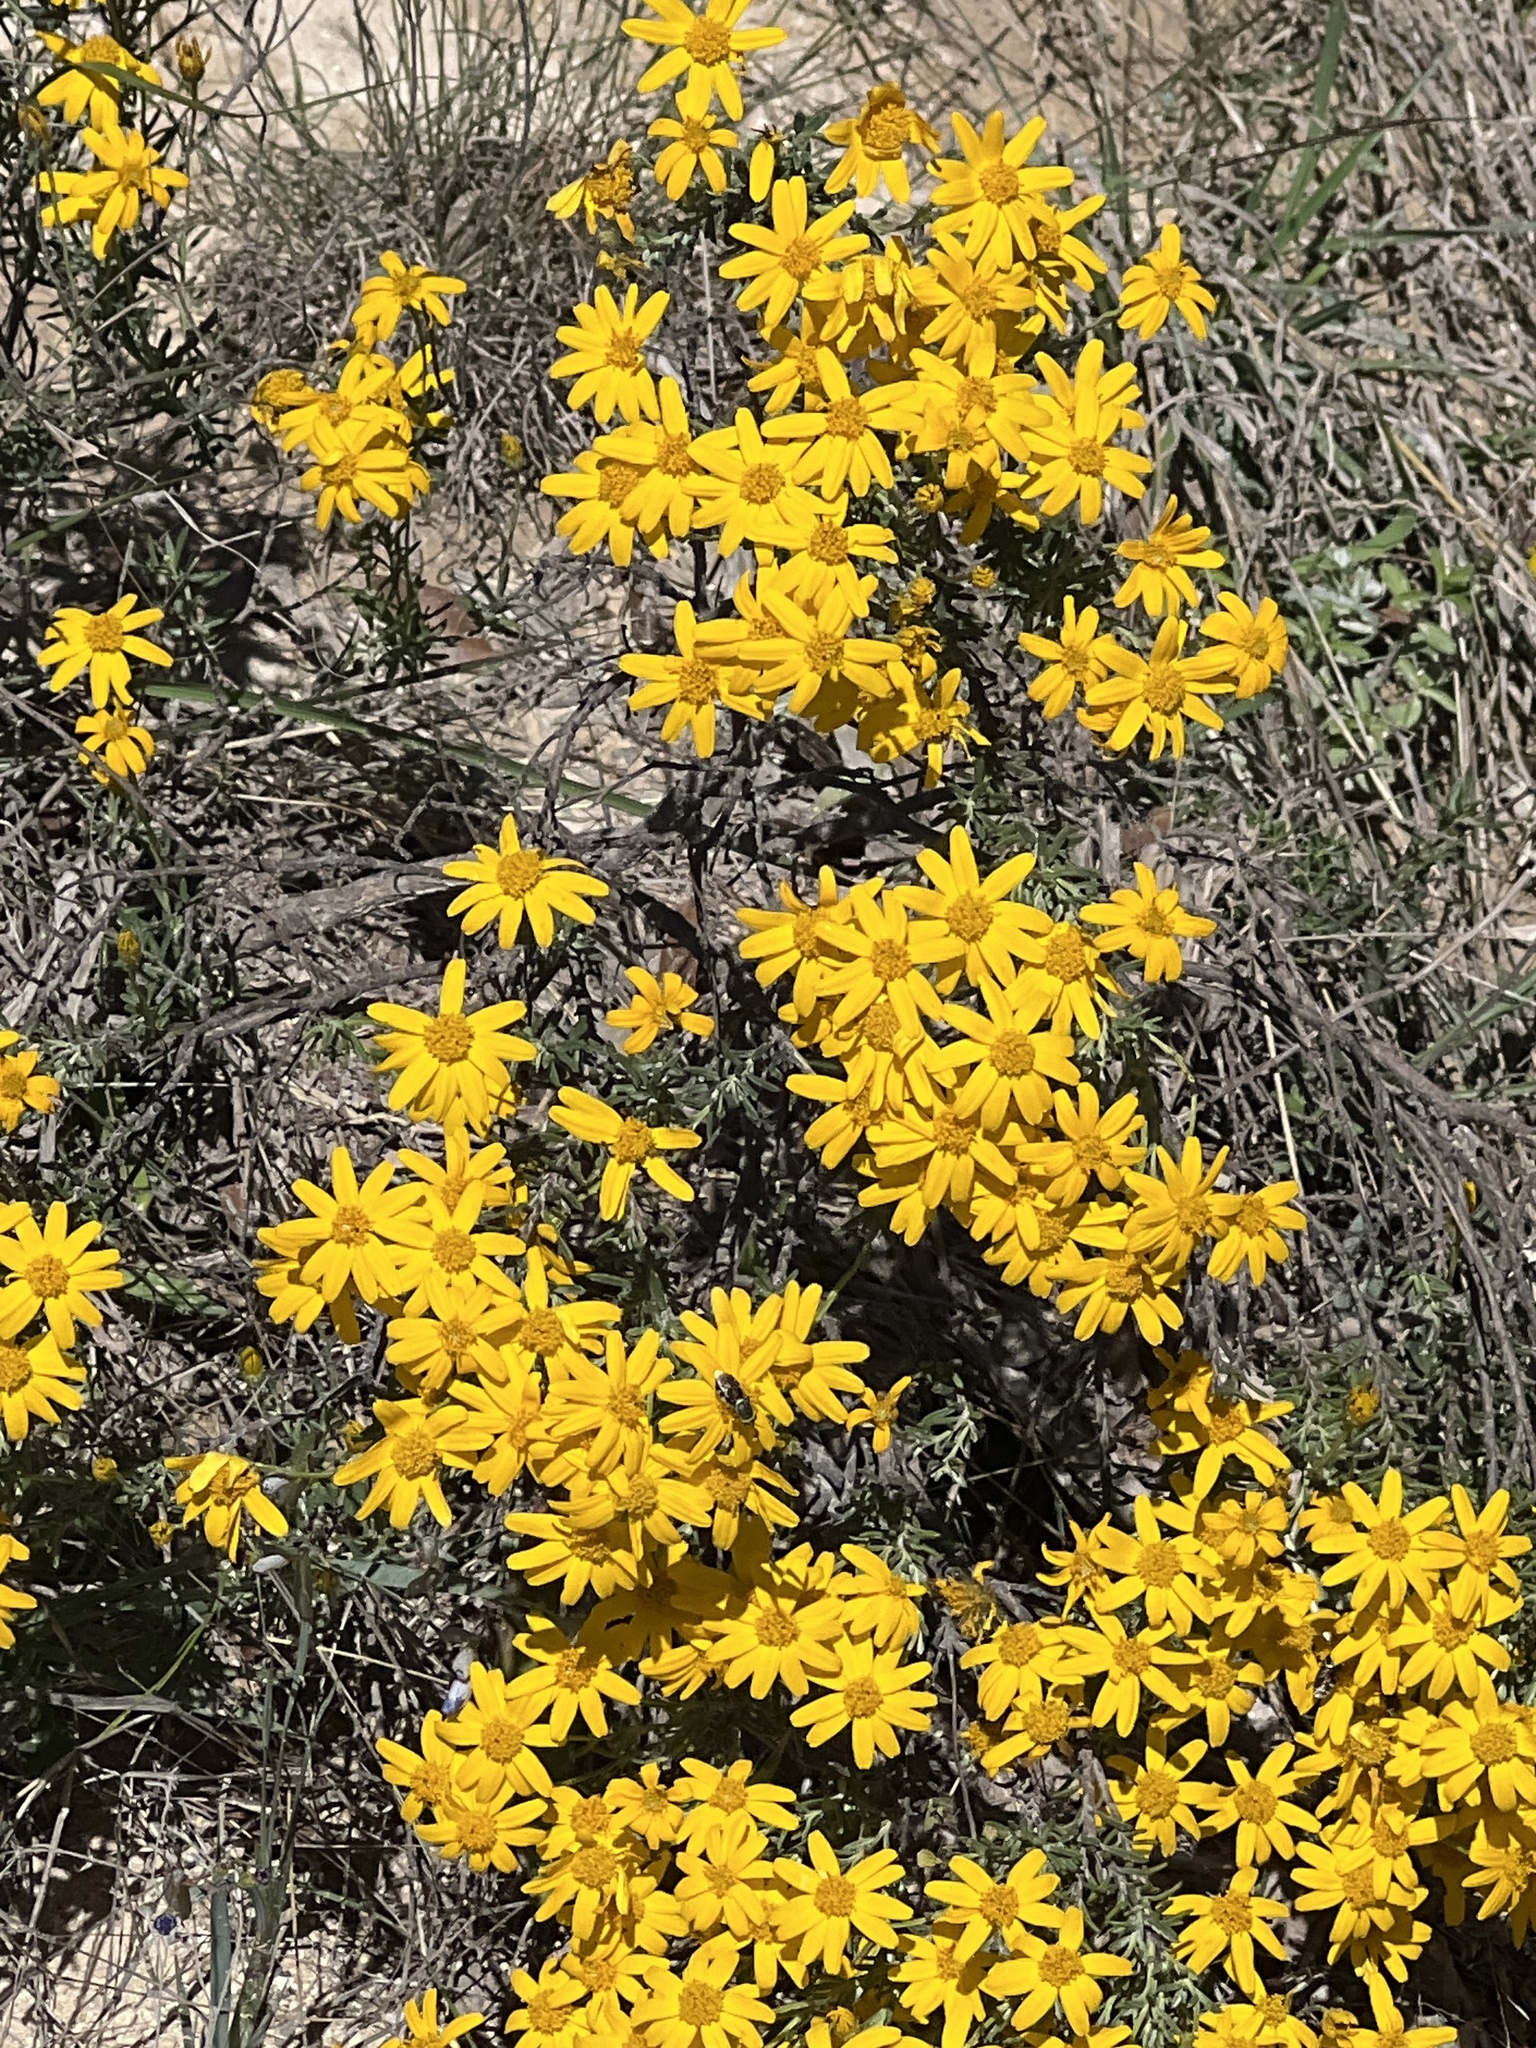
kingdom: Plantae
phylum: Tracheophyta
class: Magnoliopsida
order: Asterales
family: Asteraceae
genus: Chrysactinia
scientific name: Chrysactinia mexicana
